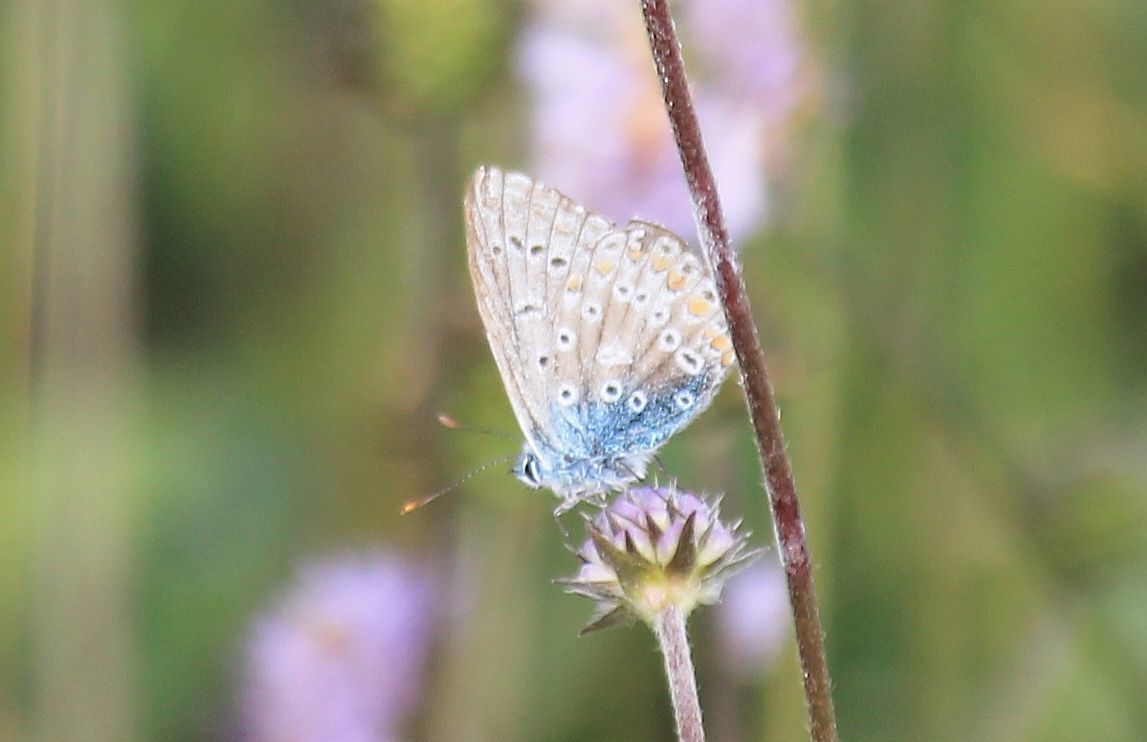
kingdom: Animalia
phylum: Arthropoda
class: Insecta
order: Lepidoptera
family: Lycaenidae
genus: Polyommatus
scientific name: Polyommatus icarus
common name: Common blue
